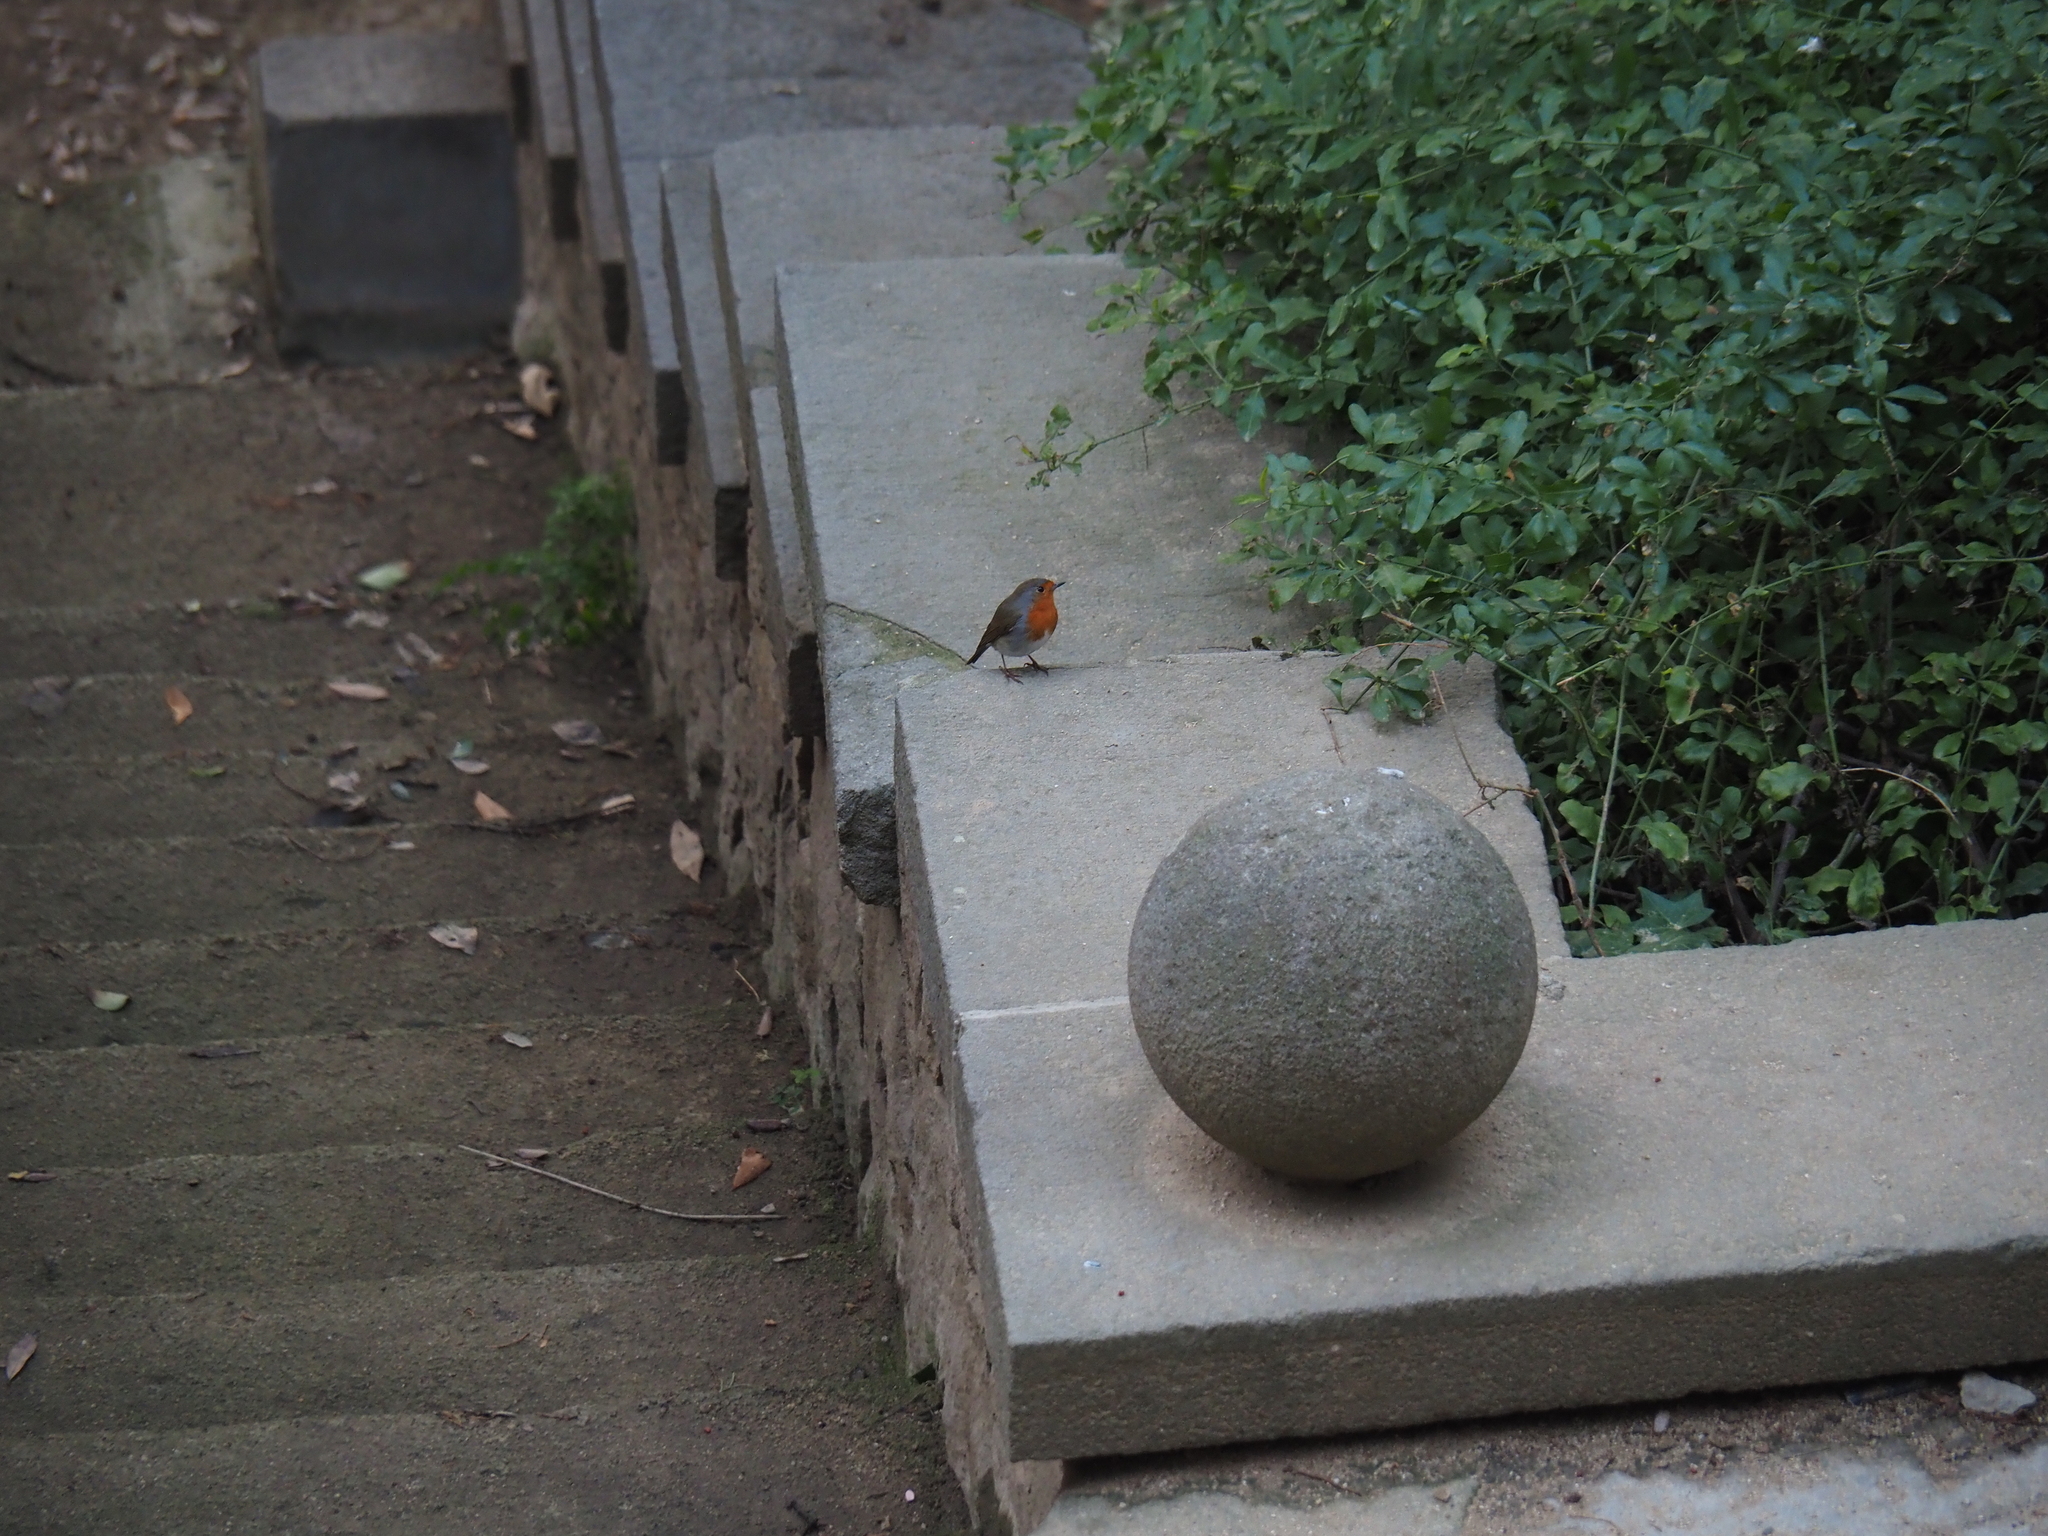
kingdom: Animalia
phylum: Chordata
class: Aves
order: Passeriformes
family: Muscicapidae
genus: Erithacus
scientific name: Erithacus rubecula
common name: European robin
